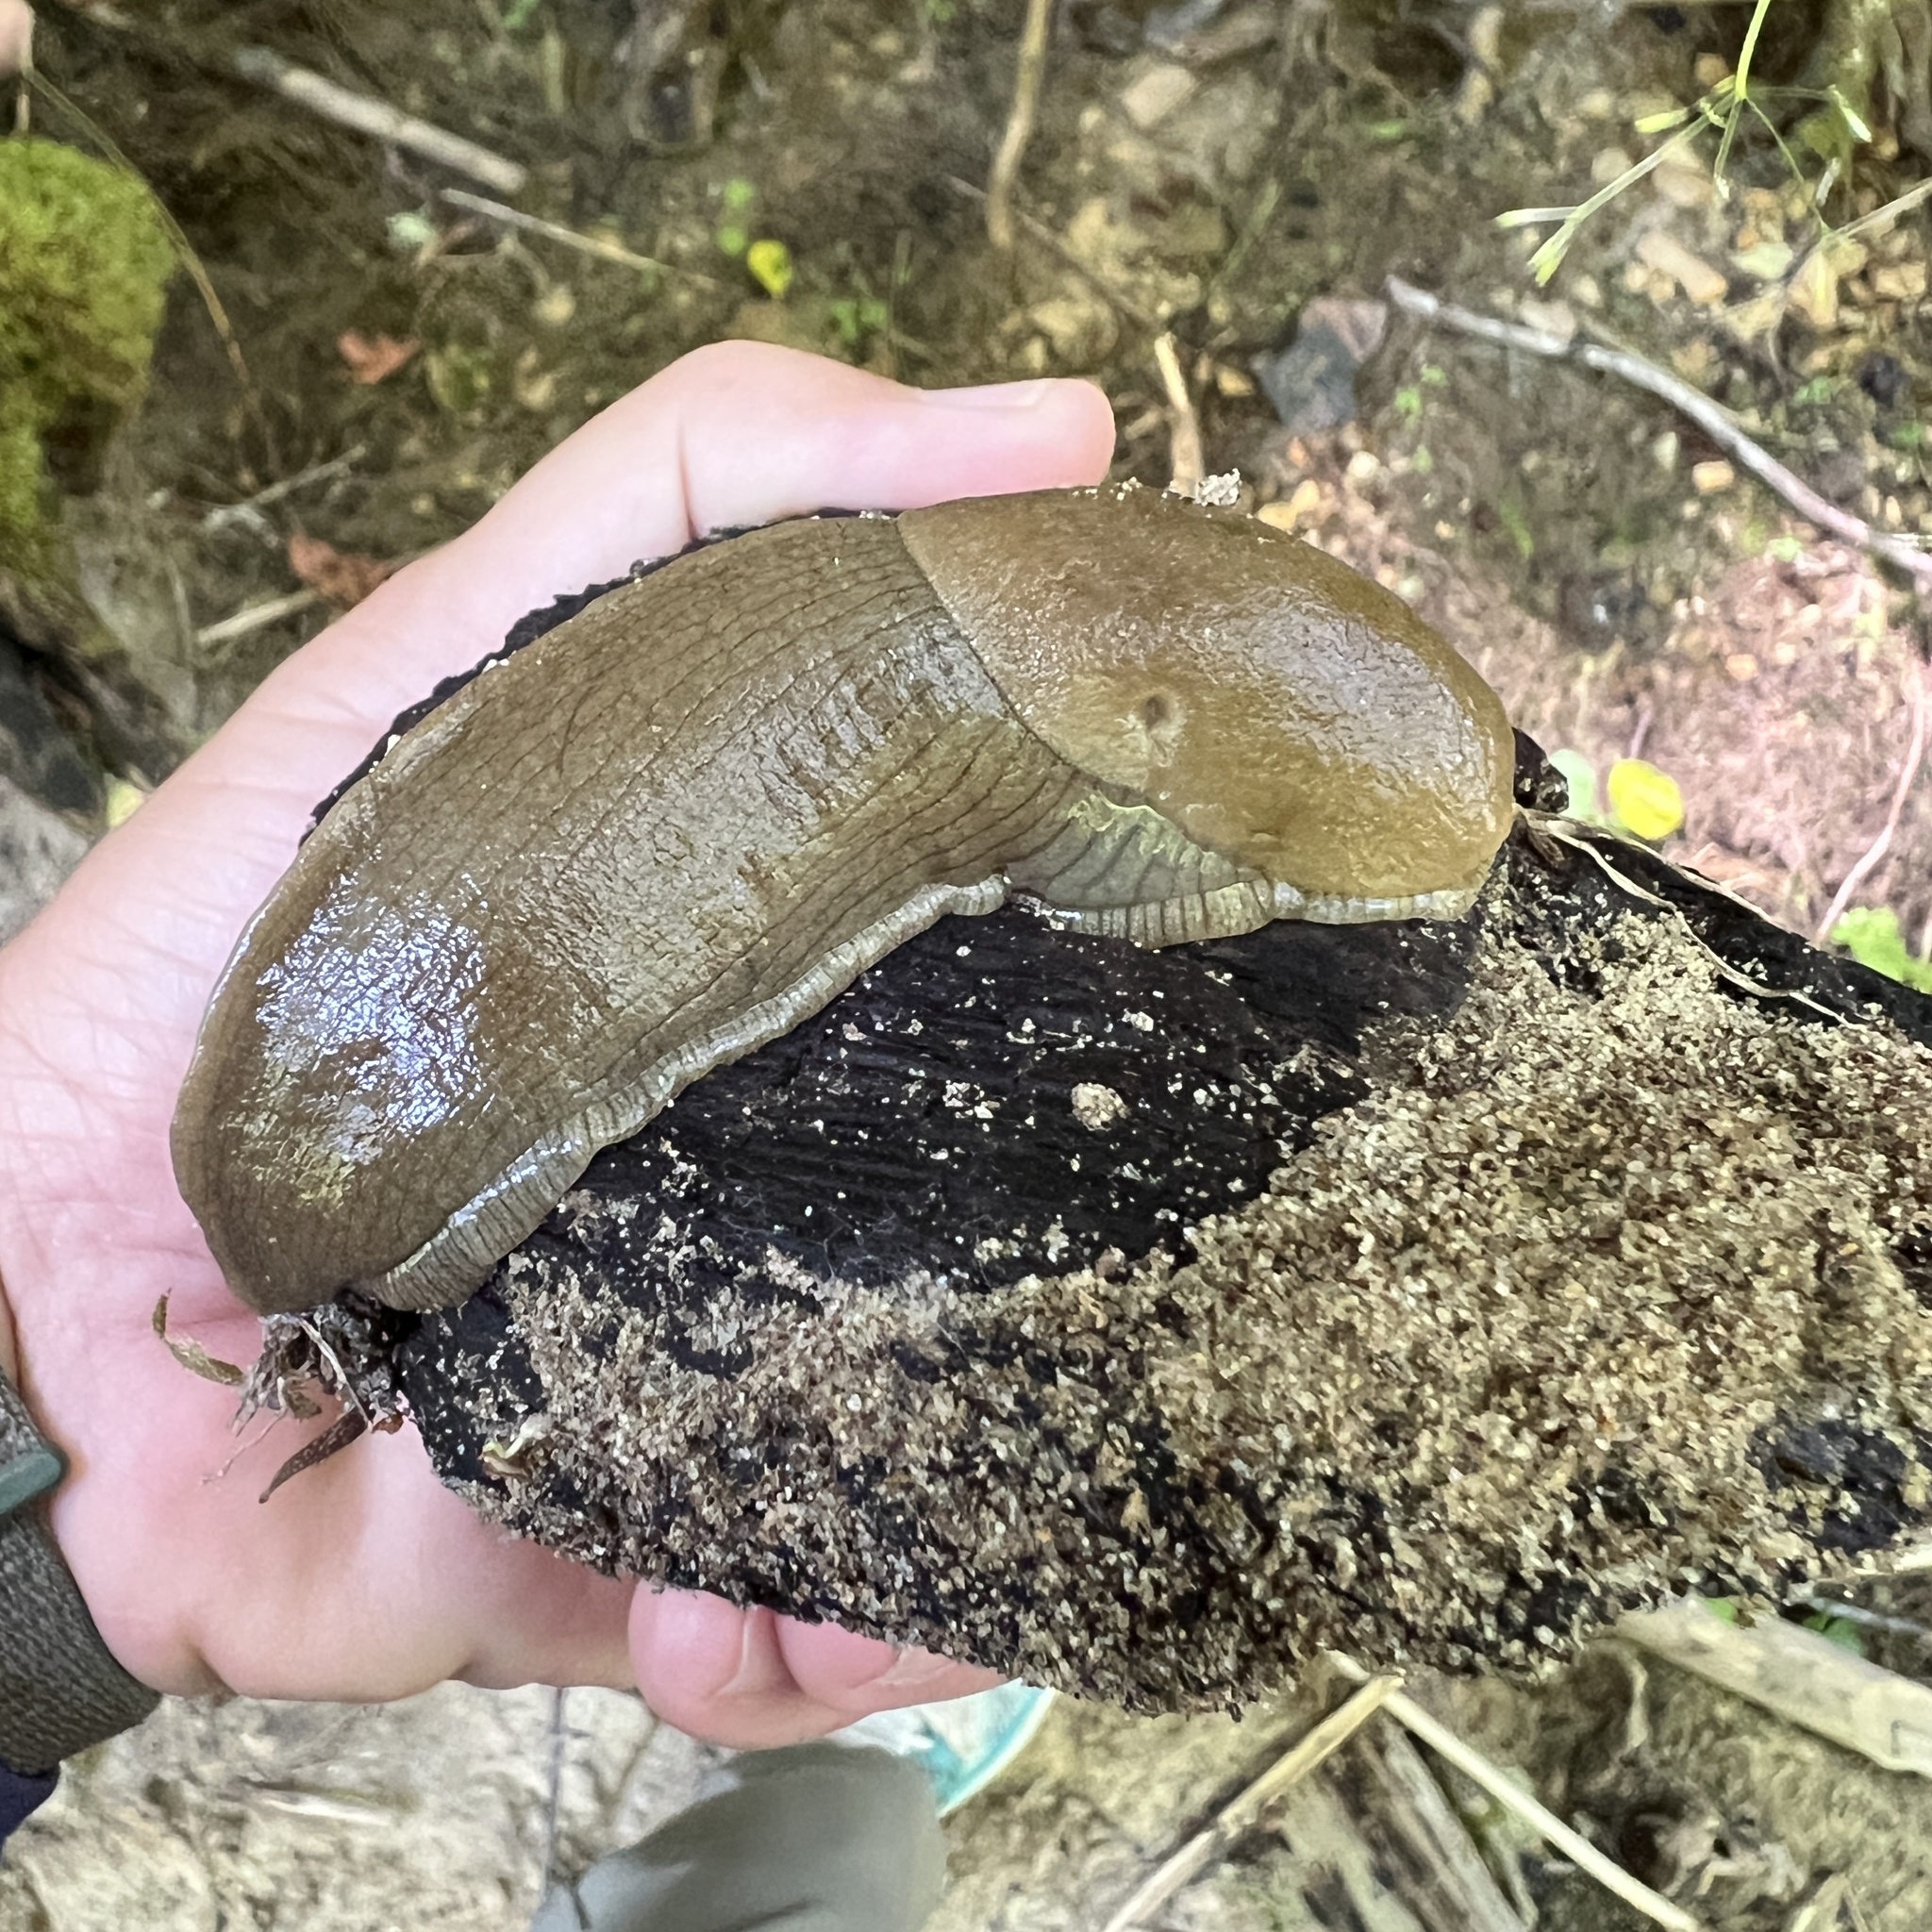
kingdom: Animalia
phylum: Mollusca
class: Gastropoda
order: Stylommatophora
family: Ariolimacidae
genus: Ariolimax
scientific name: Ariolimax columbianus
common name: Pacific banana slug
